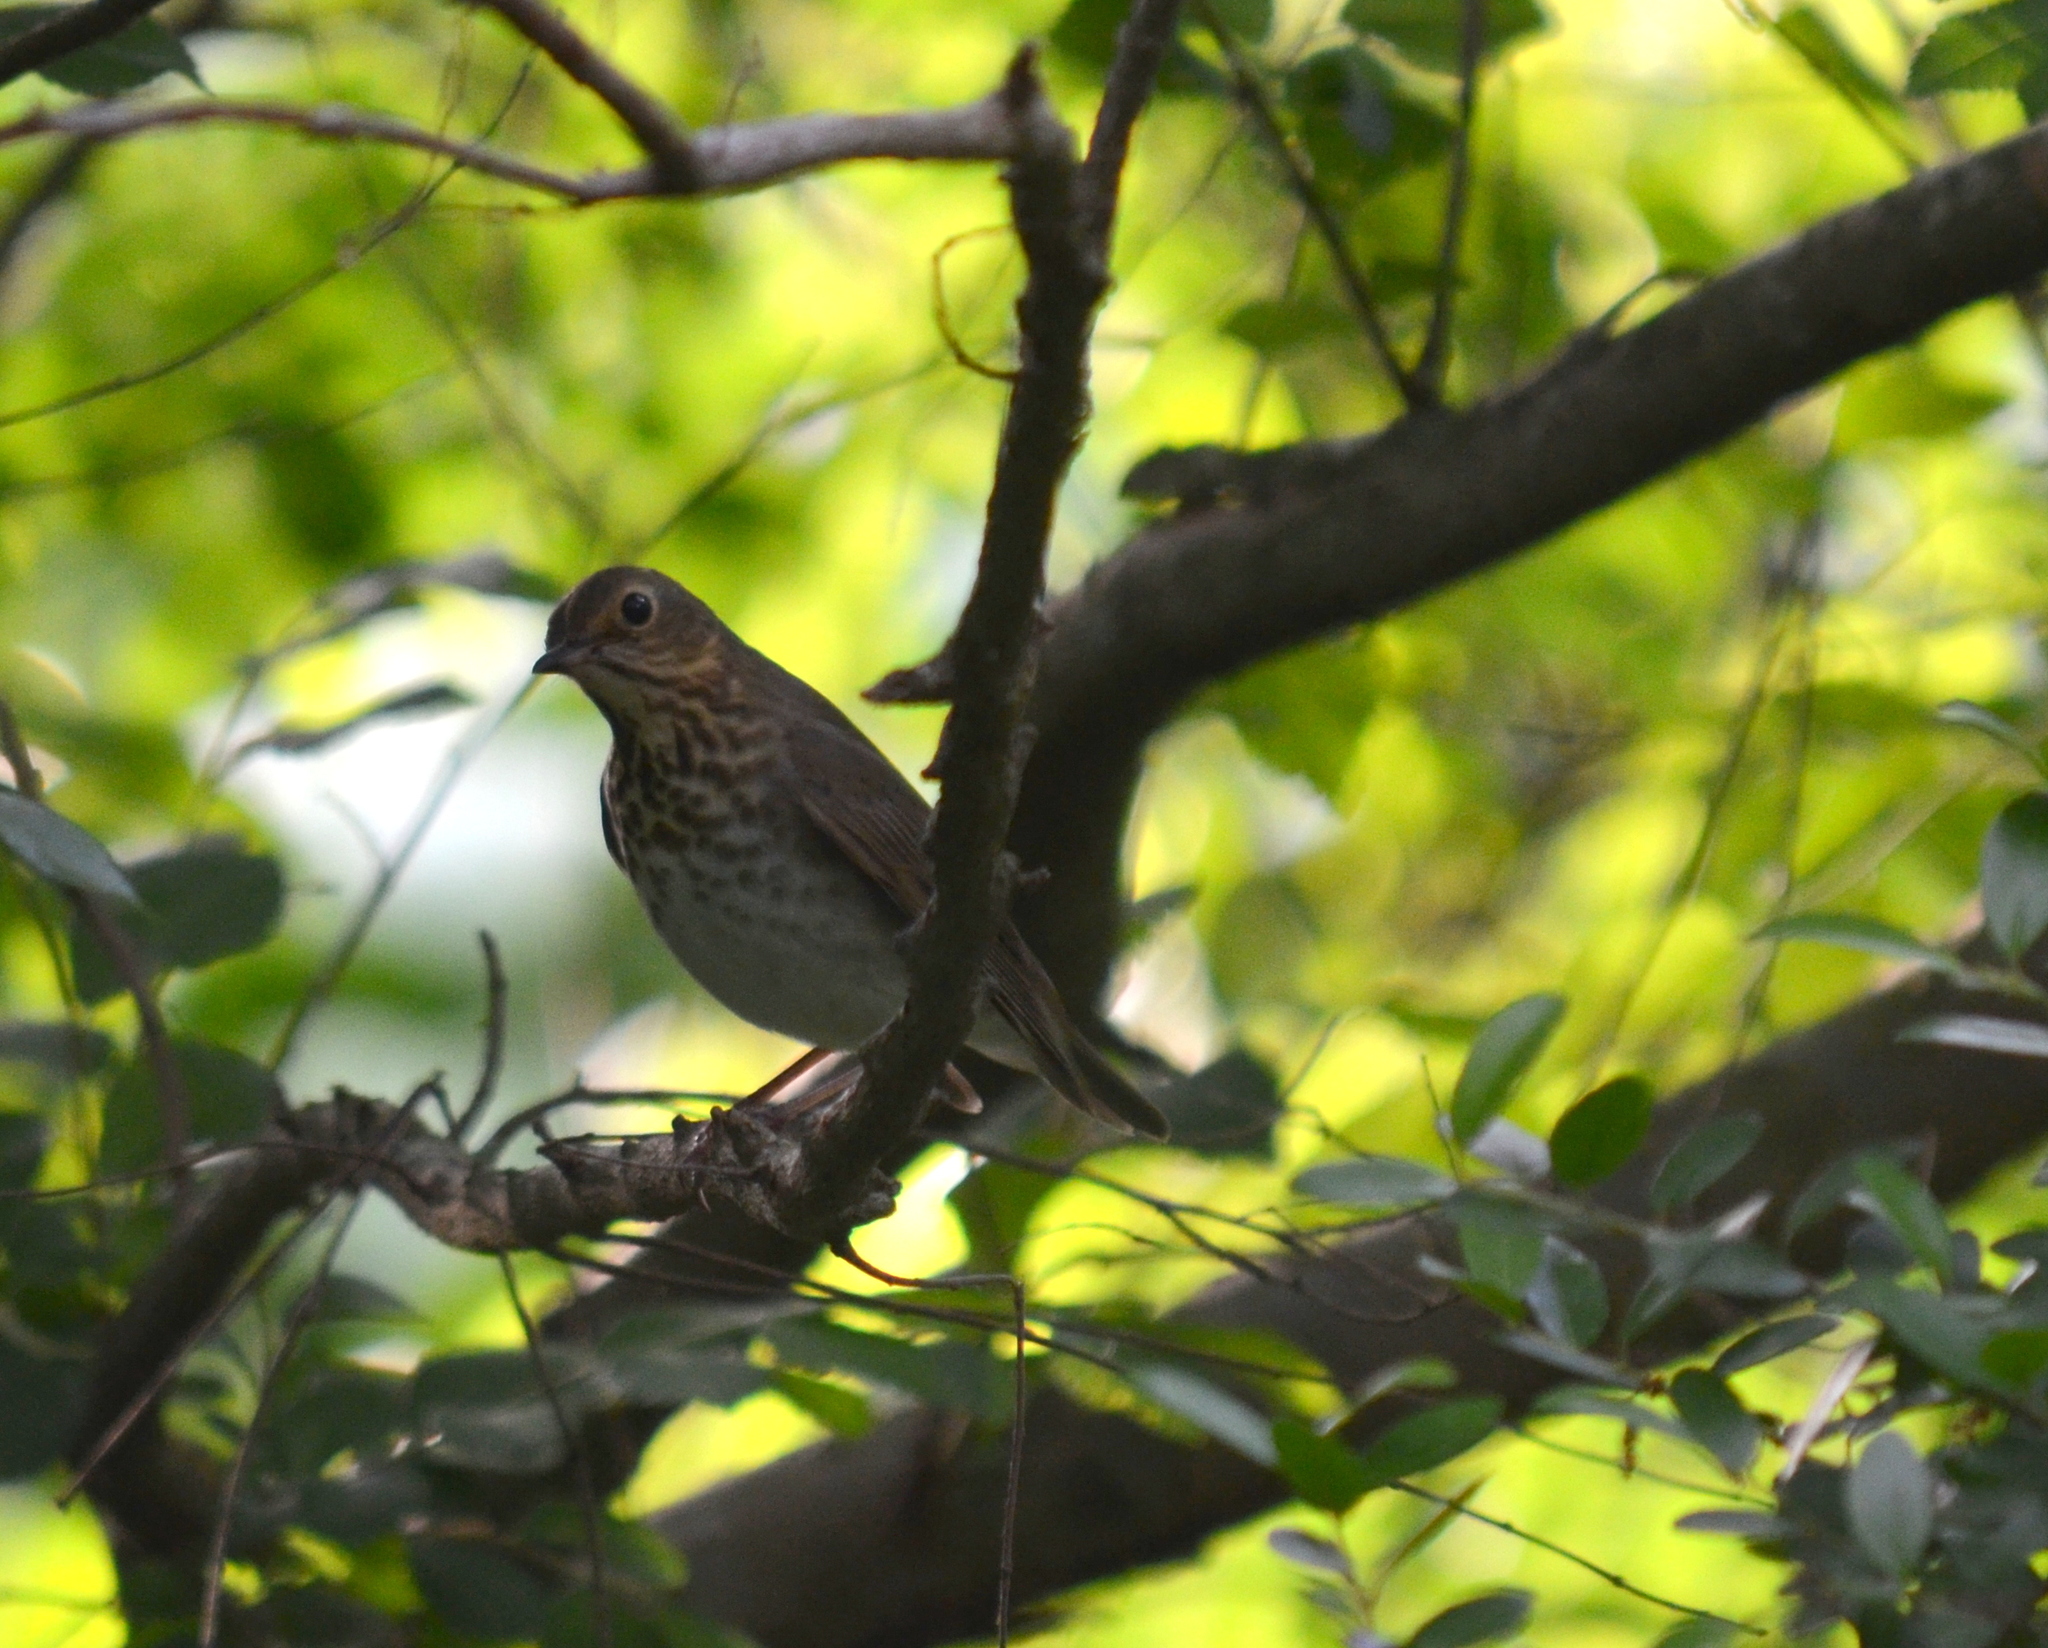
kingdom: Animalia
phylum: Chordata
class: Aves
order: Passeriformes
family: Turdidae
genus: Catharus
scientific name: Catharus ustulatus
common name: Swainson's thrush
